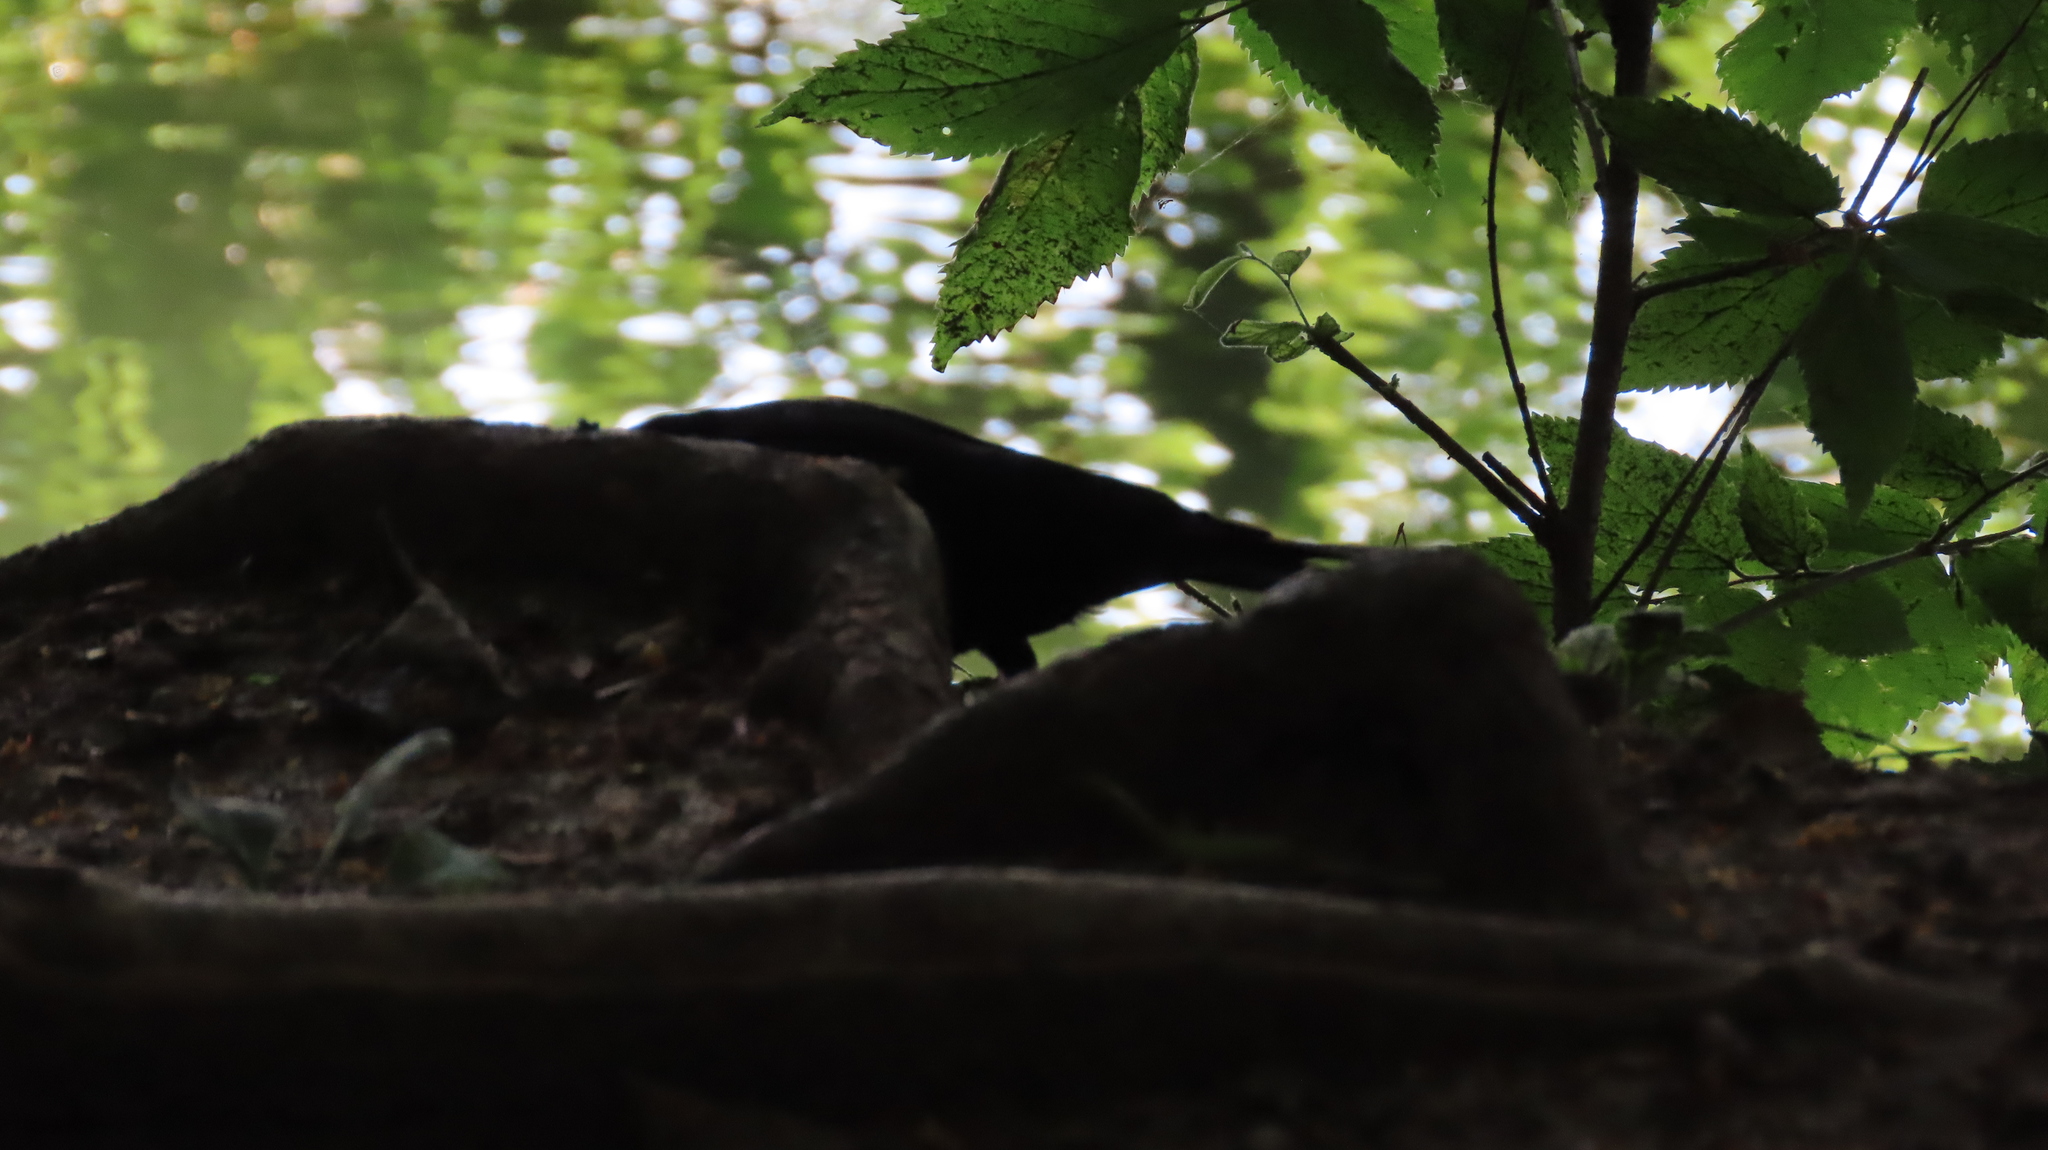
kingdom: Animalia
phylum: Chordata
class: Aves
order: Passeriformes
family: Icteridae
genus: Agelaius
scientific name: Agelaius phoeniceus
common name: Red-winged blackbird
